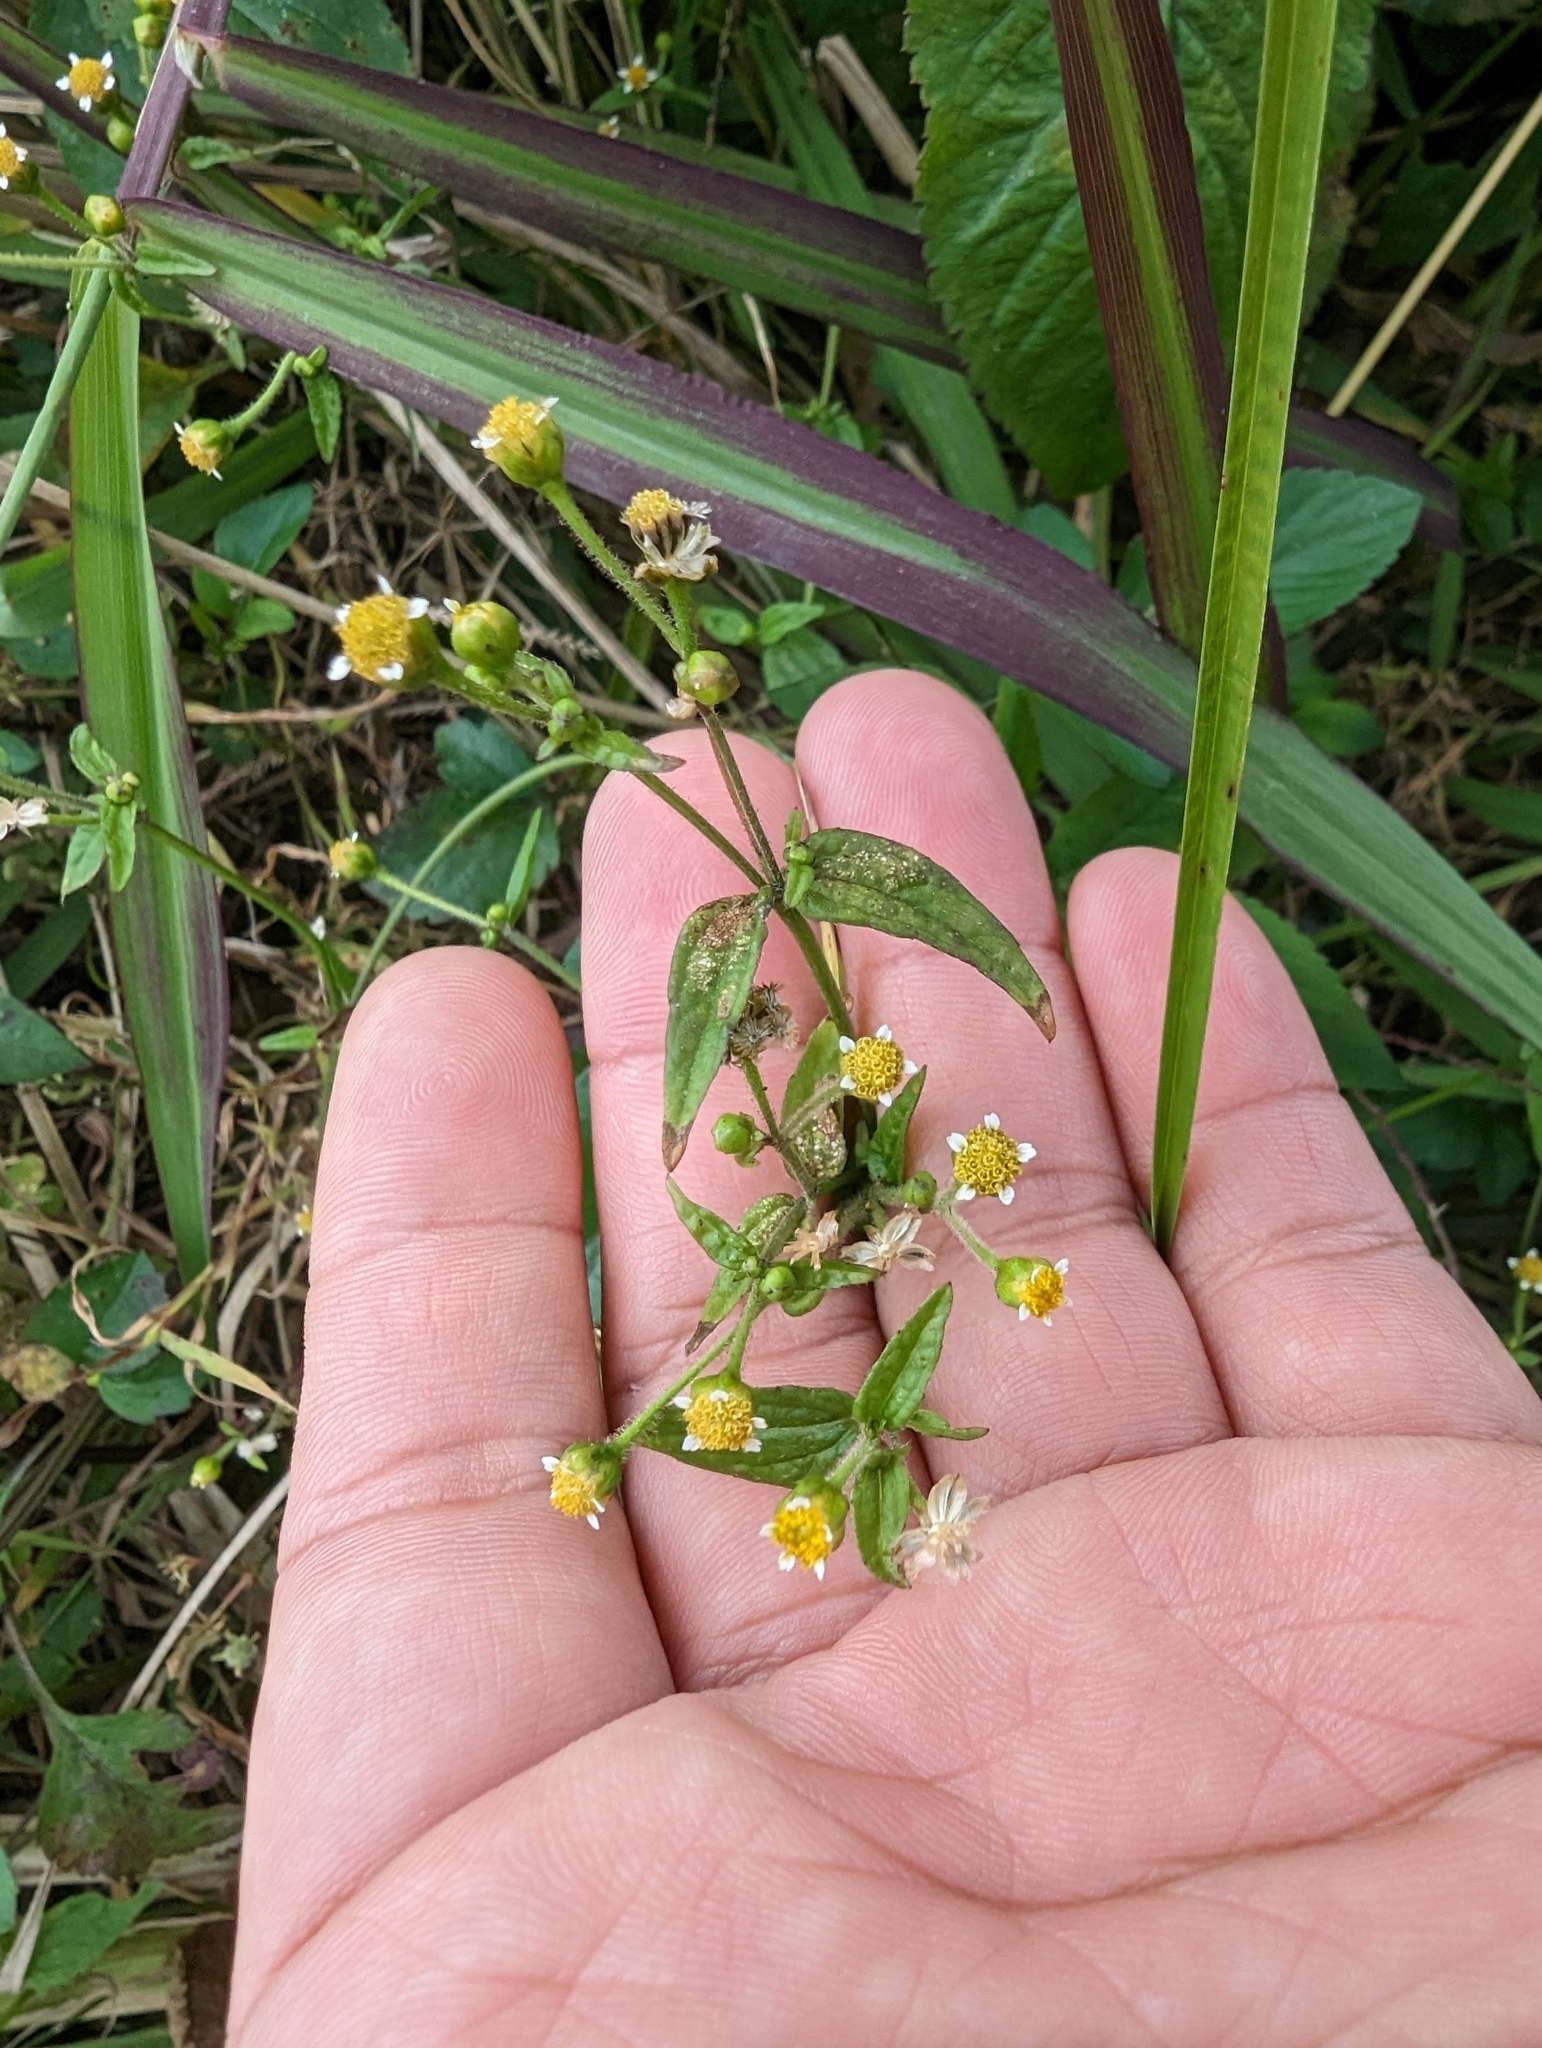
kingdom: Plantae
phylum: Tracheophyta
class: Magnoliopsida
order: Asterales
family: Asteraceae
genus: Galinsoga
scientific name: Galinsoga quadriradiata
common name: Shaggy soldier
